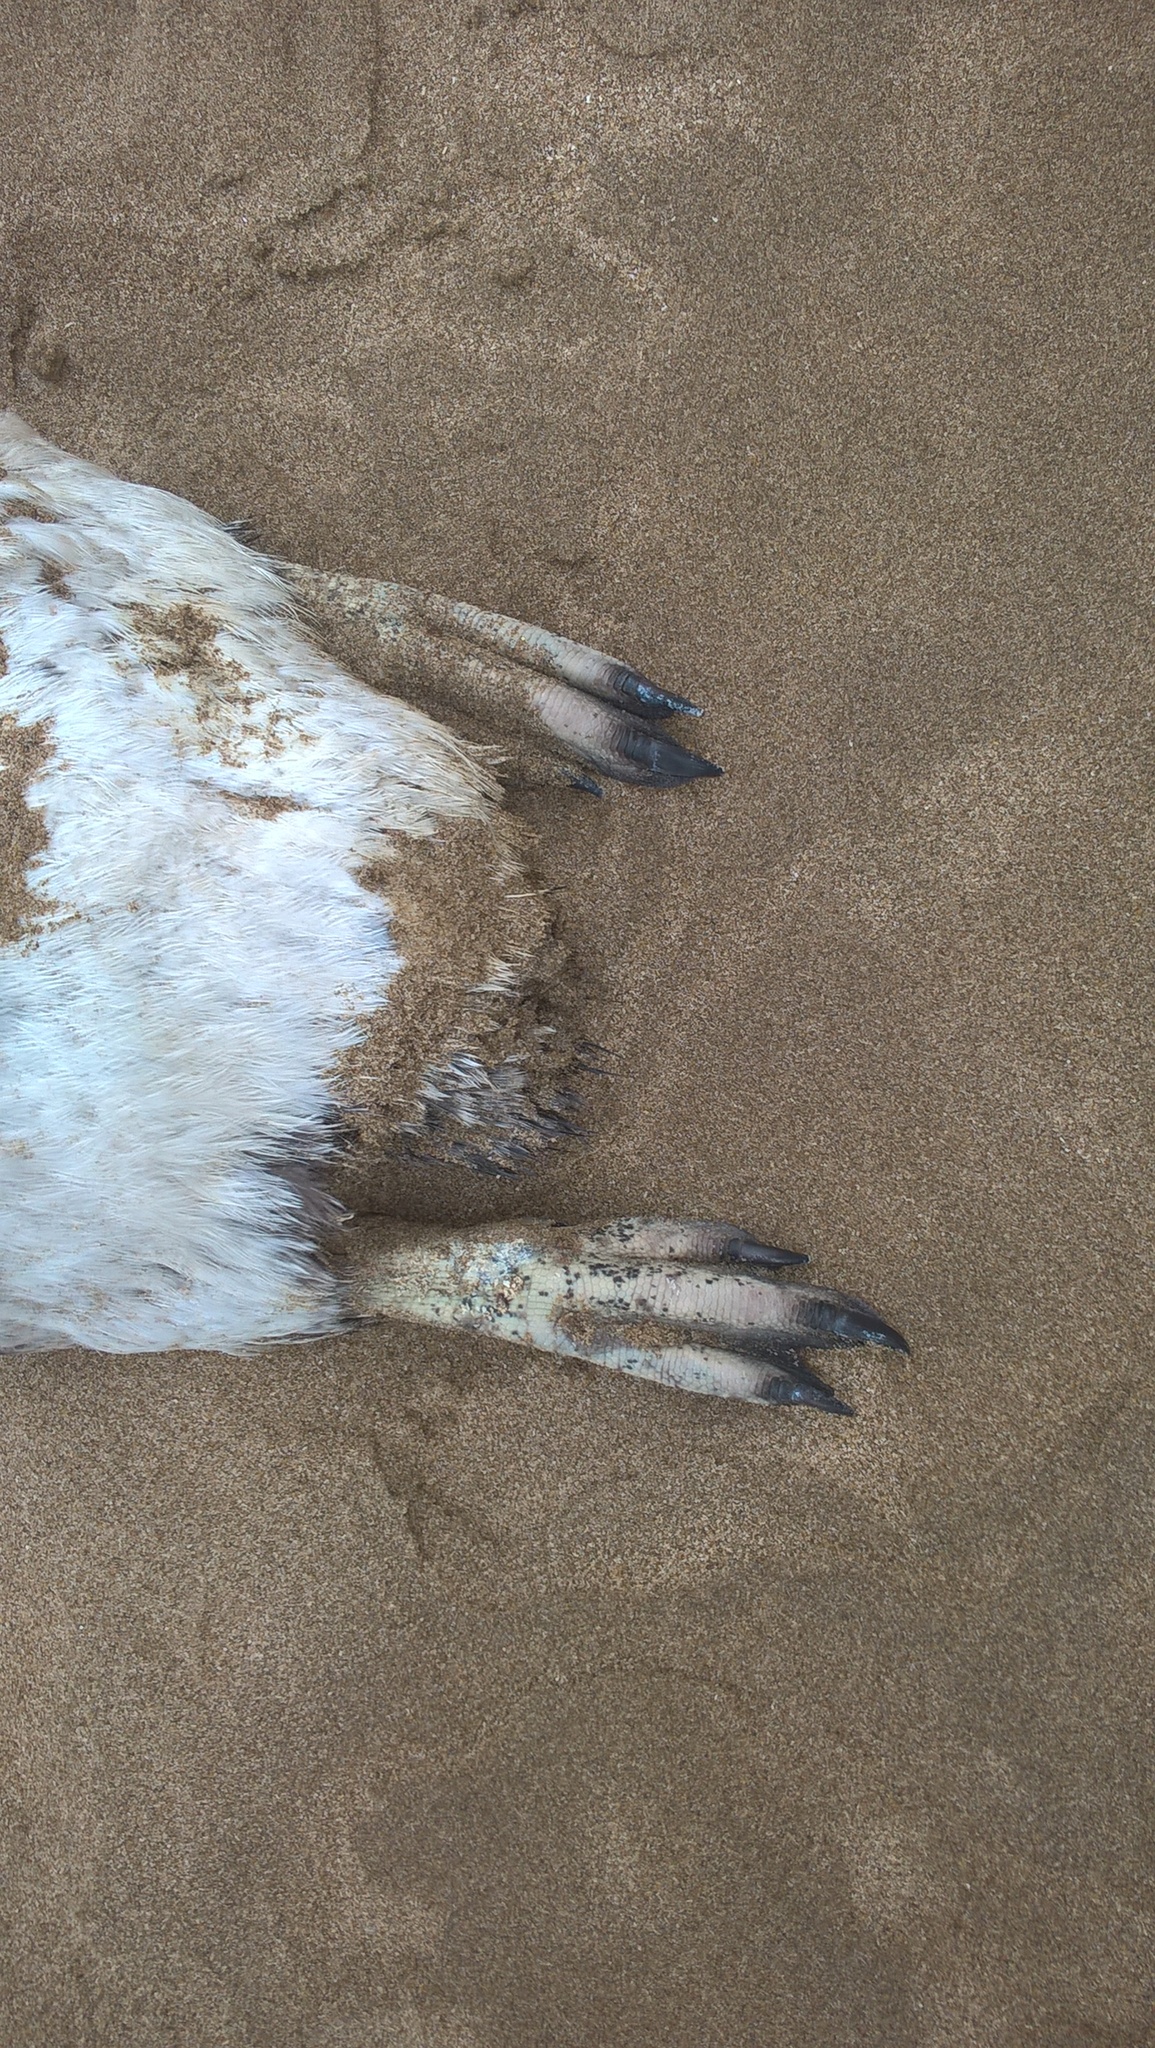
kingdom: Animalia
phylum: Chordata
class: Aves
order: Sphenisciformes
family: Spheniscidae
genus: Spheniscus
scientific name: Spheniscus magellanicus
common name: Magellanic penguin
